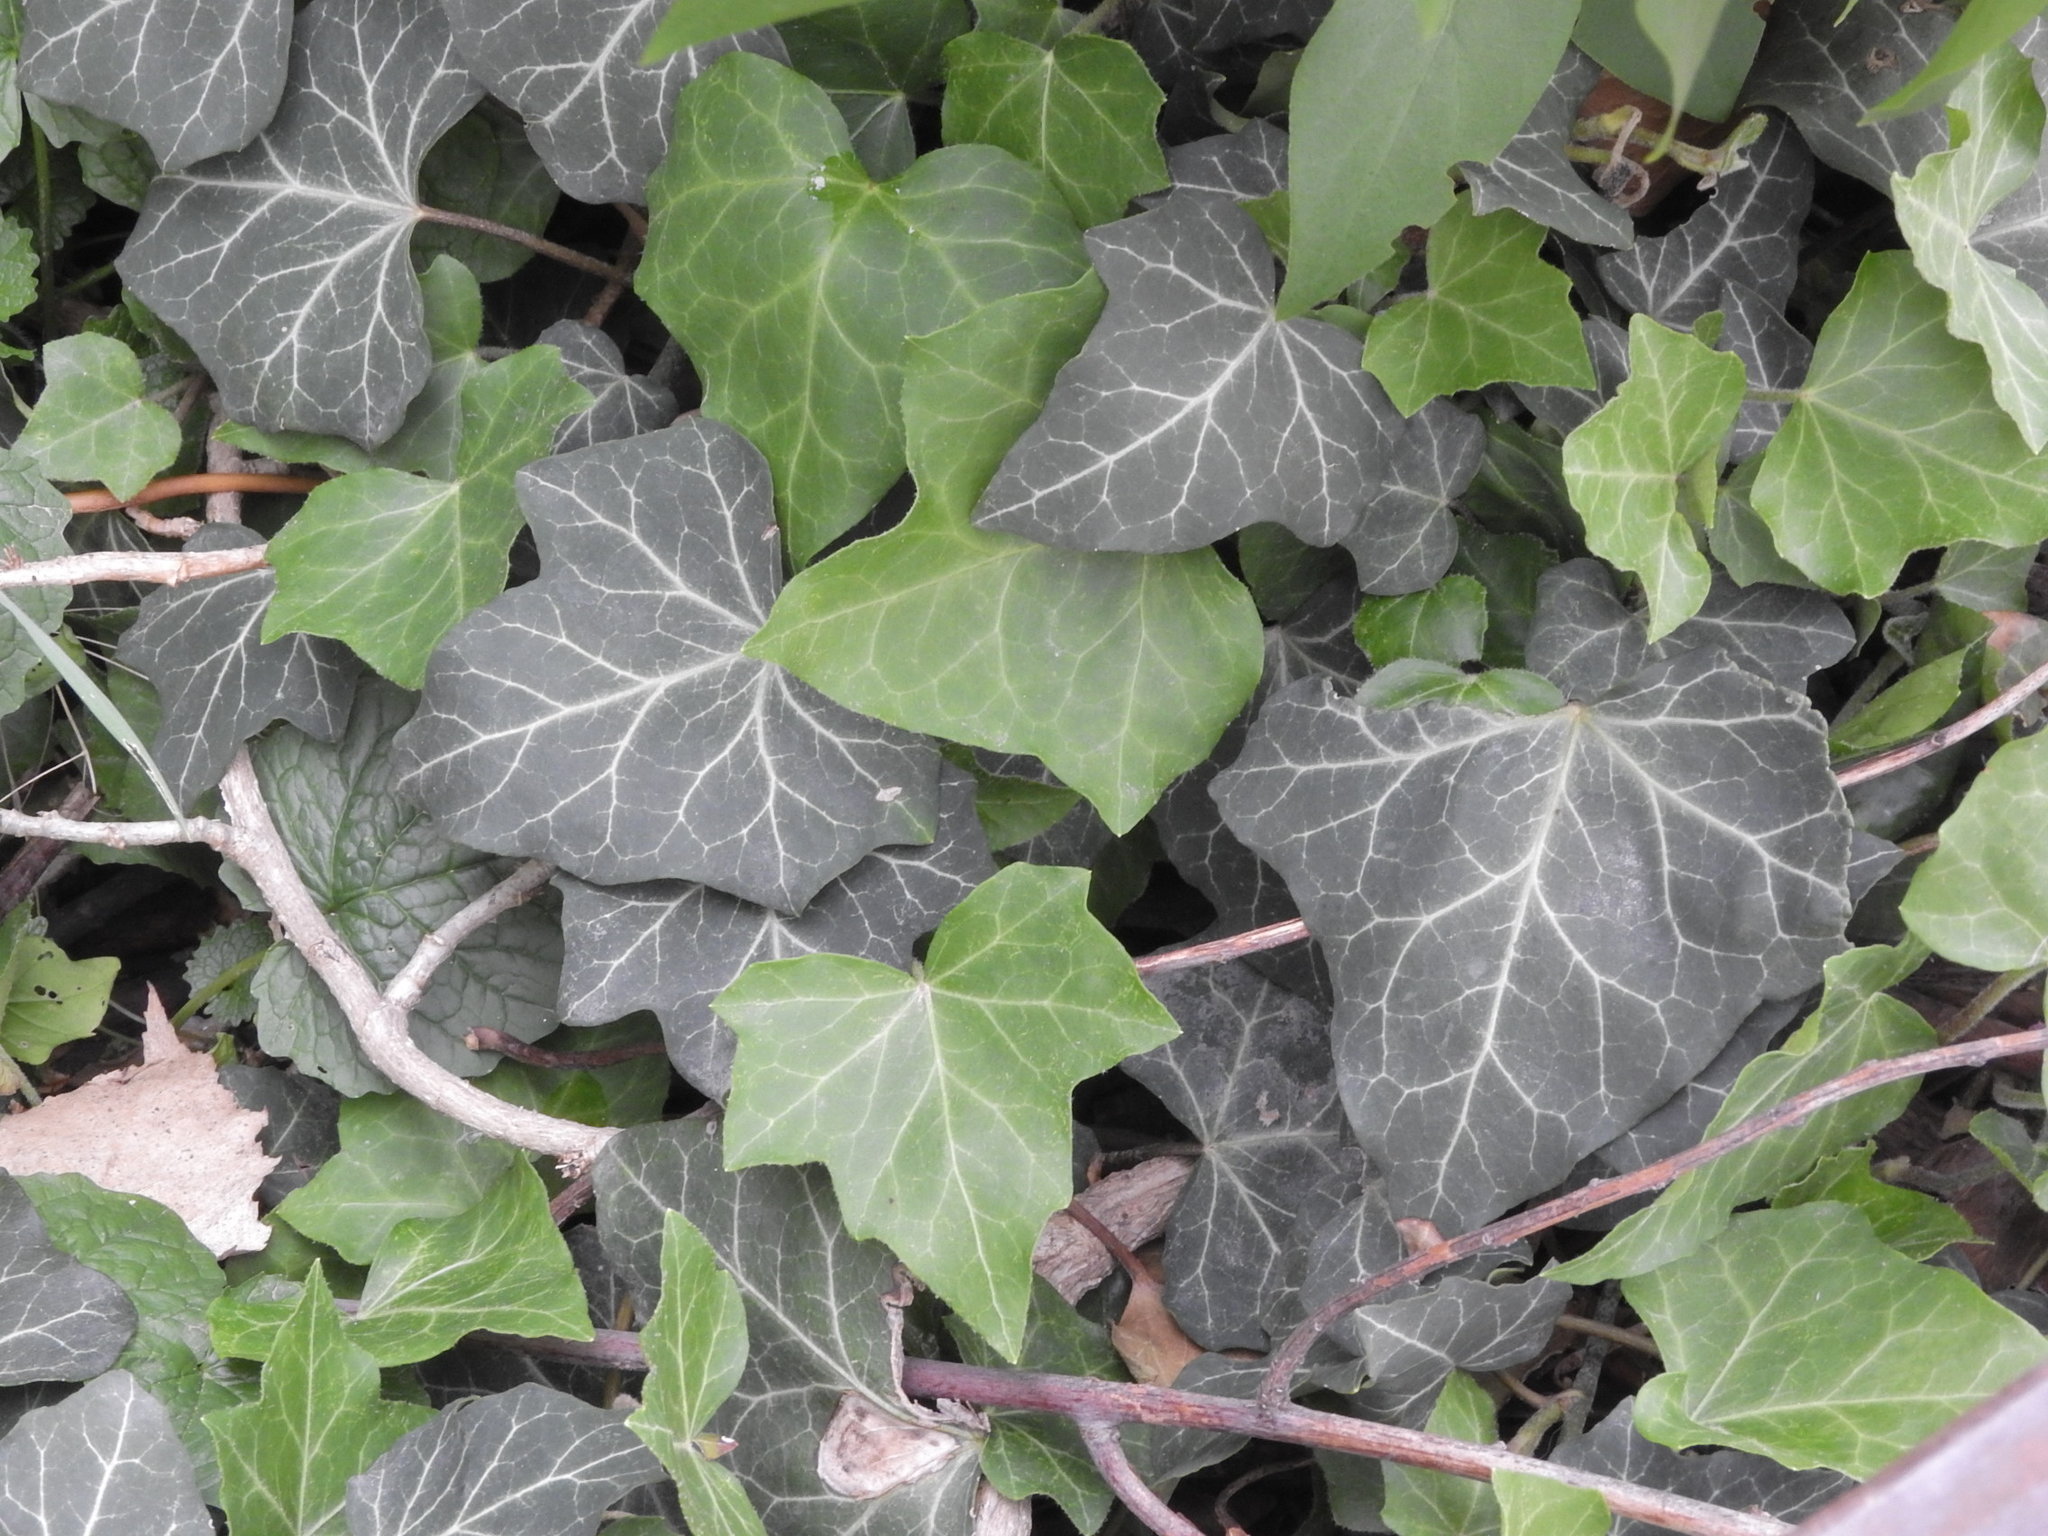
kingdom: Plantae
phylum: Tracheophyta
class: Magnoliopsida
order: Apiales
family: Araliaceae
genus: Hedera
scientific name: Hedera helix
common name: Ivy
